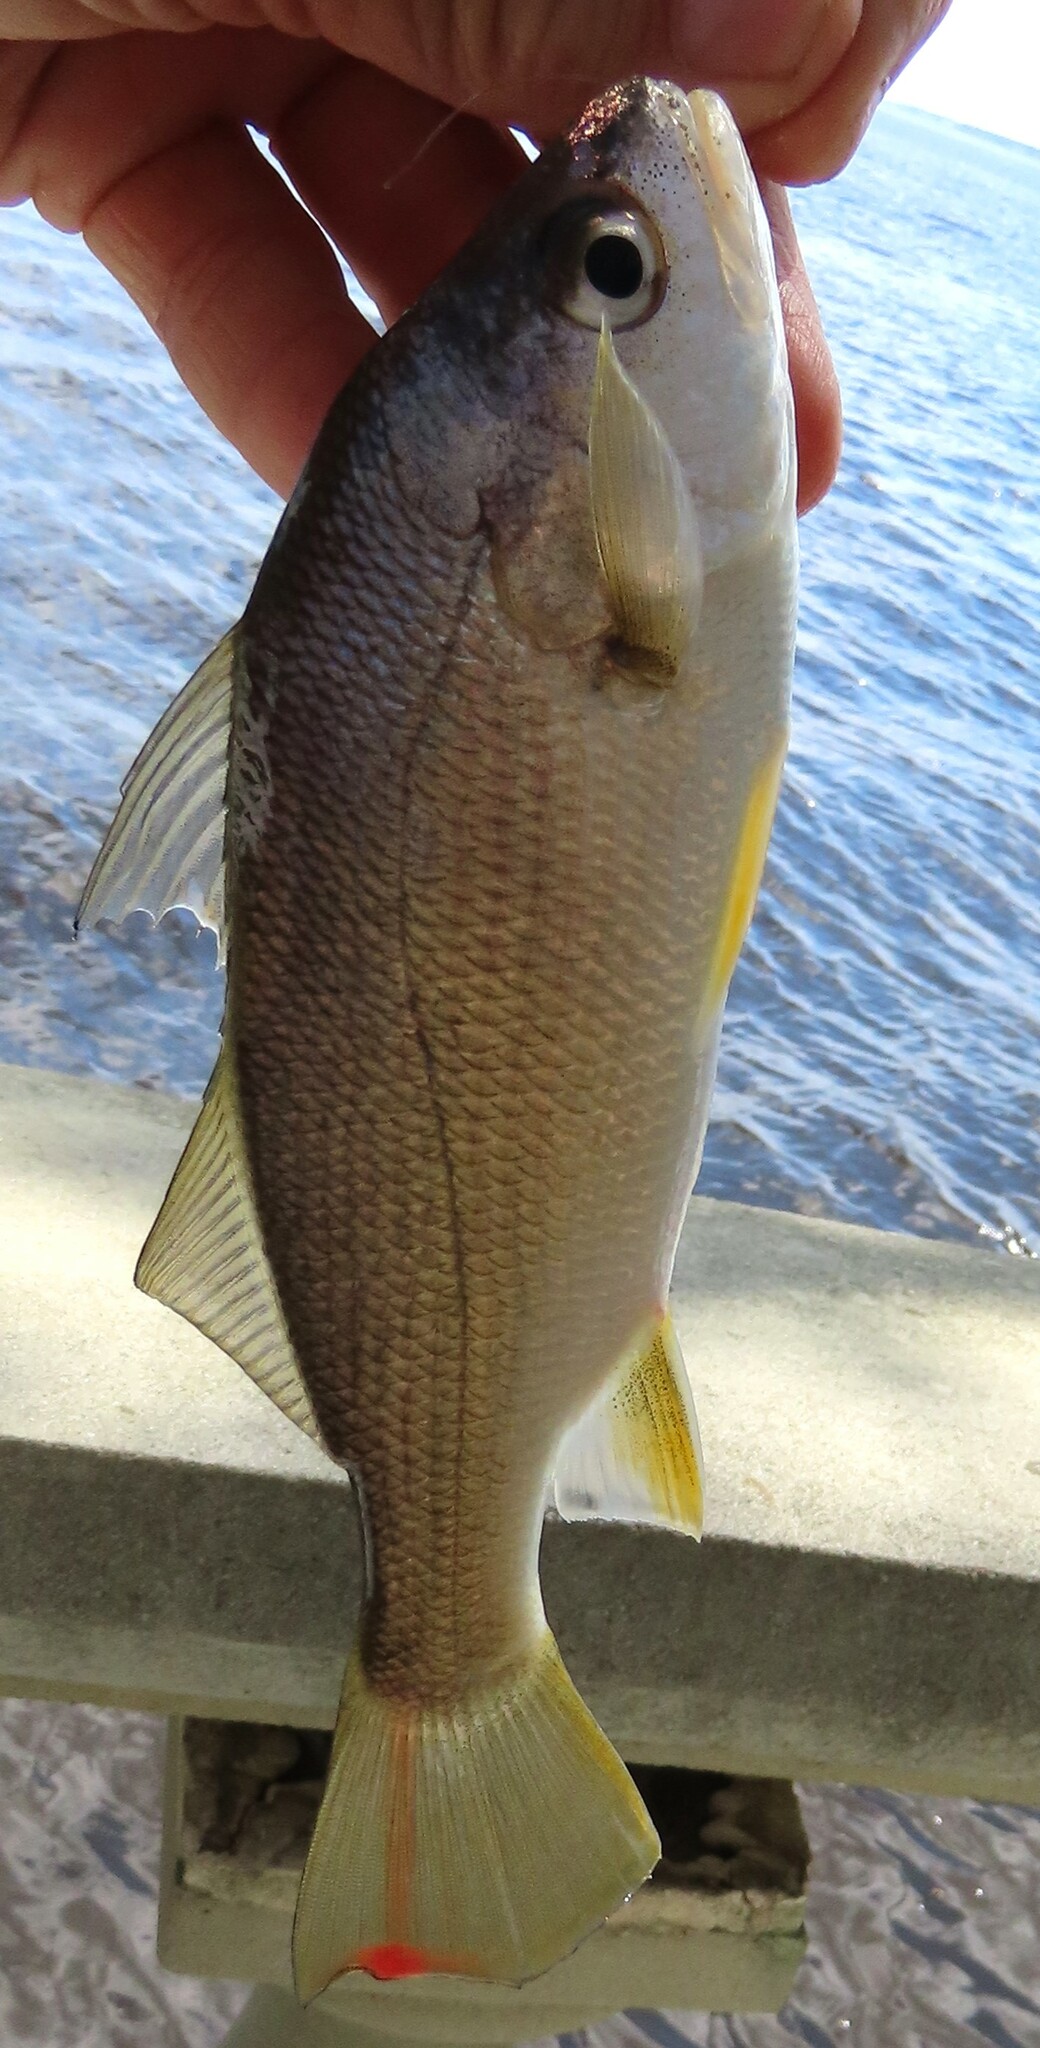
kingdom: Animalia
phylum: Chordata
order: Perciformes
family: Sciaenidae
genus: Bairdiella
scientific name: Bairdiella chrysoura
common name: Silver perch
